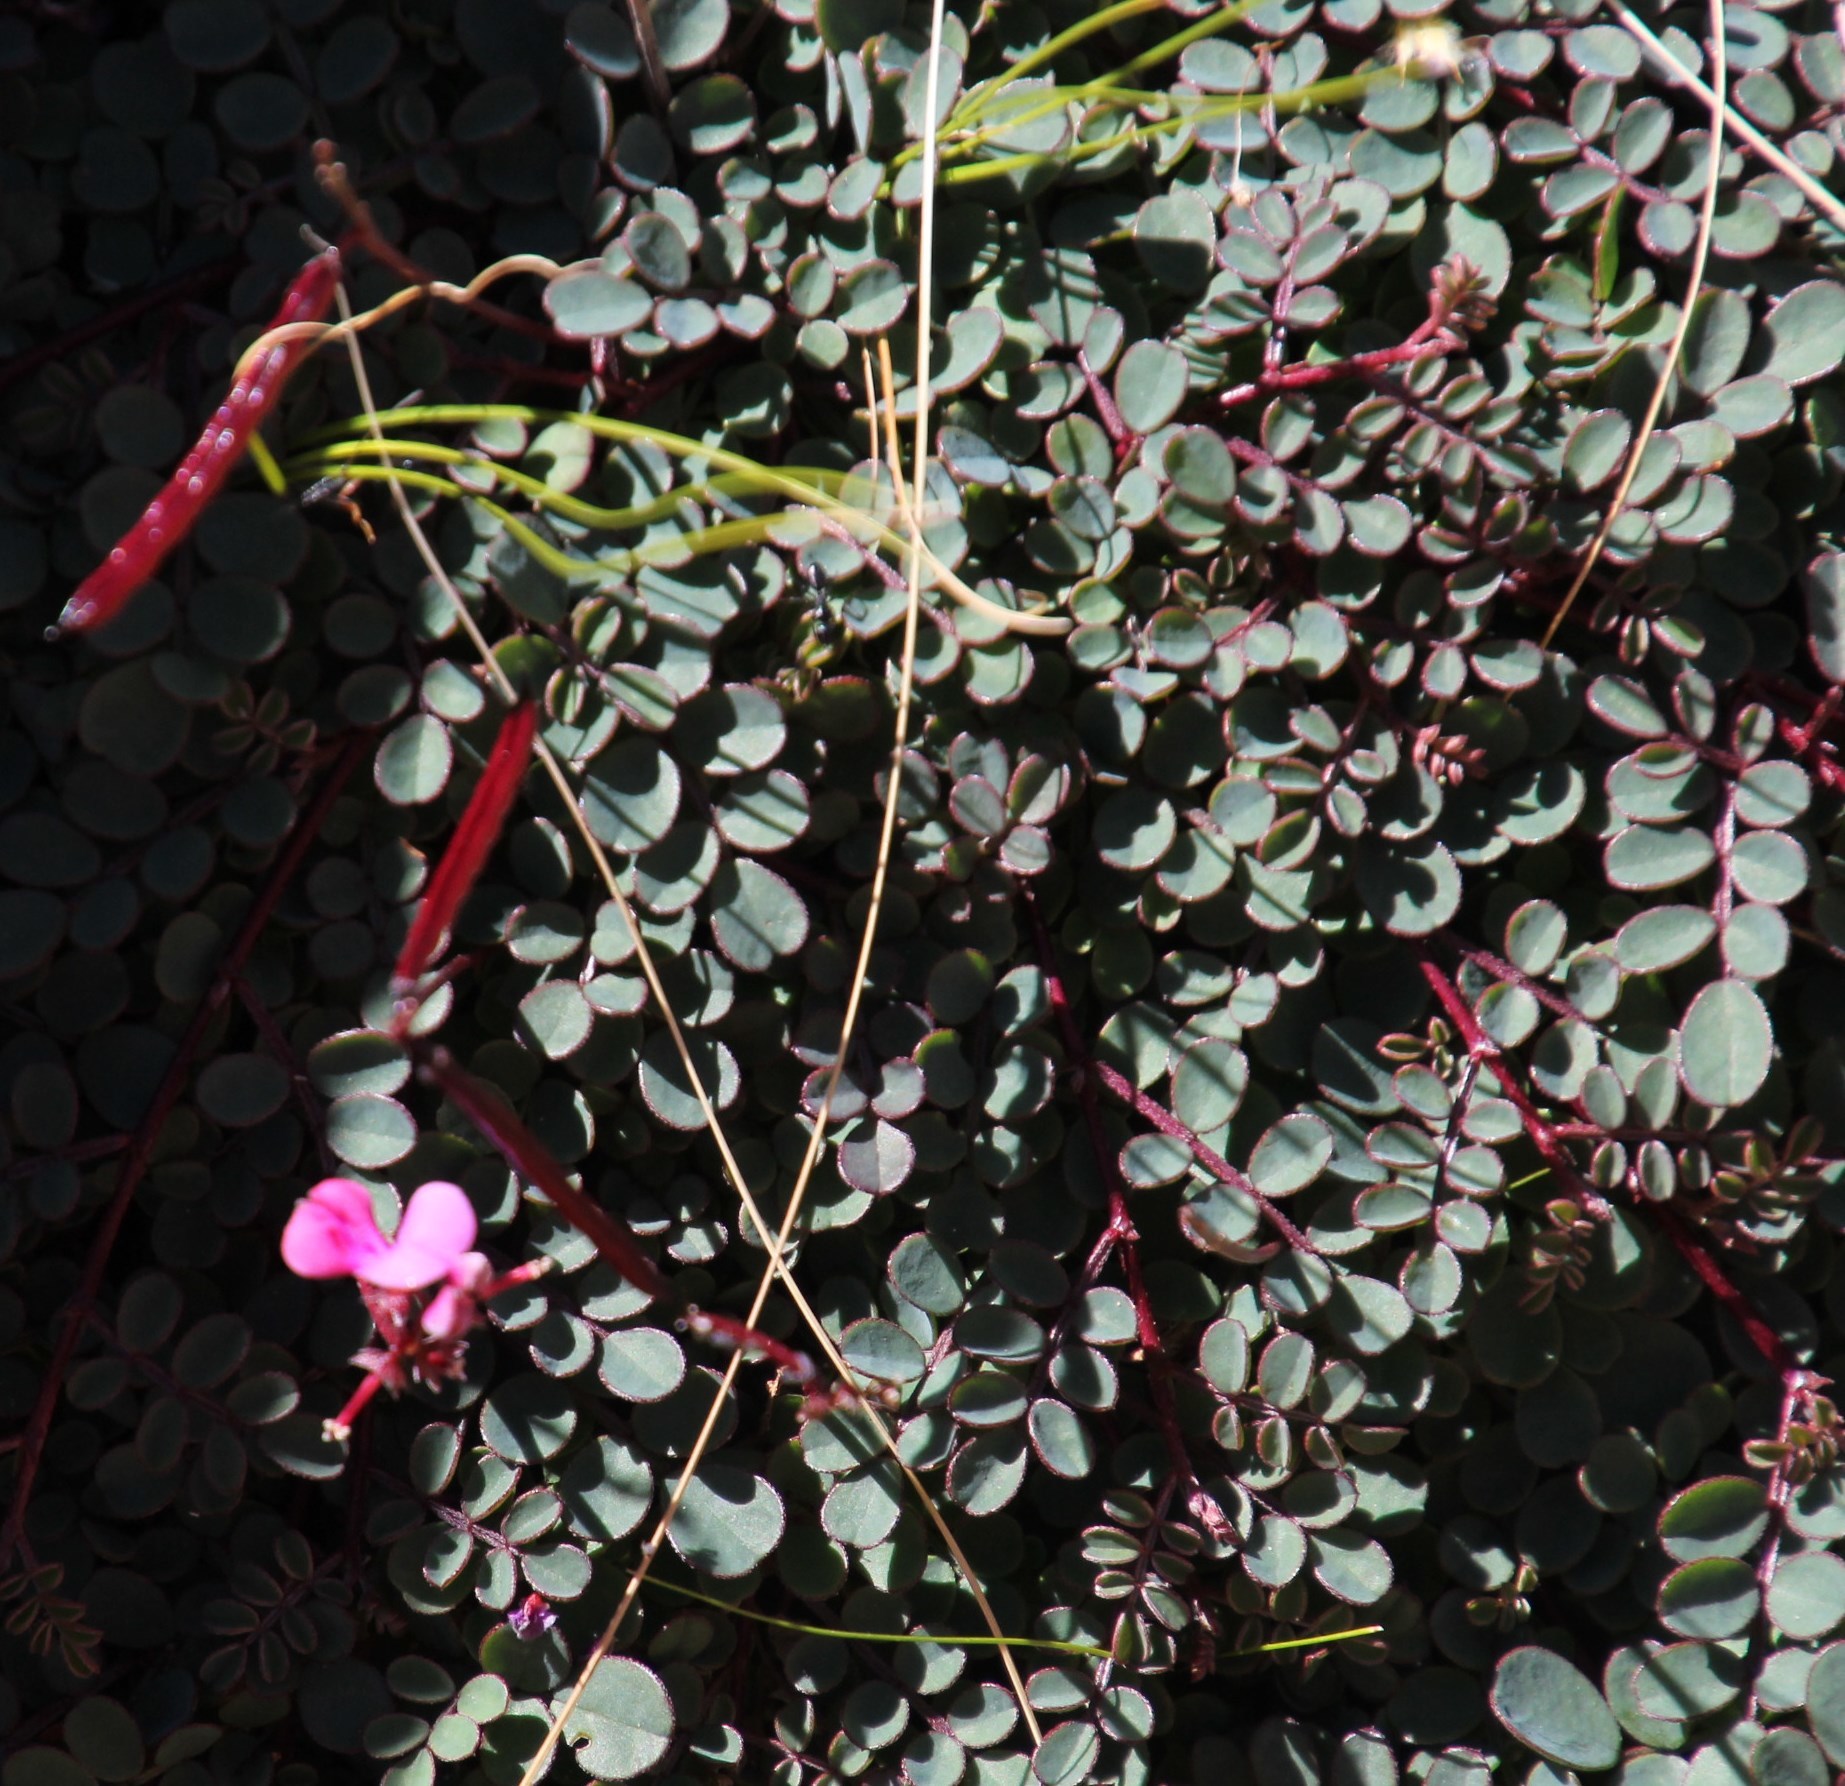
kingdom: Plantae
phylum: Tracheophyta
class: Magnoliopsida
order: Fabales
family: Fabaceae
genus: Indigofera
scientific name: Indigofera humifusa
